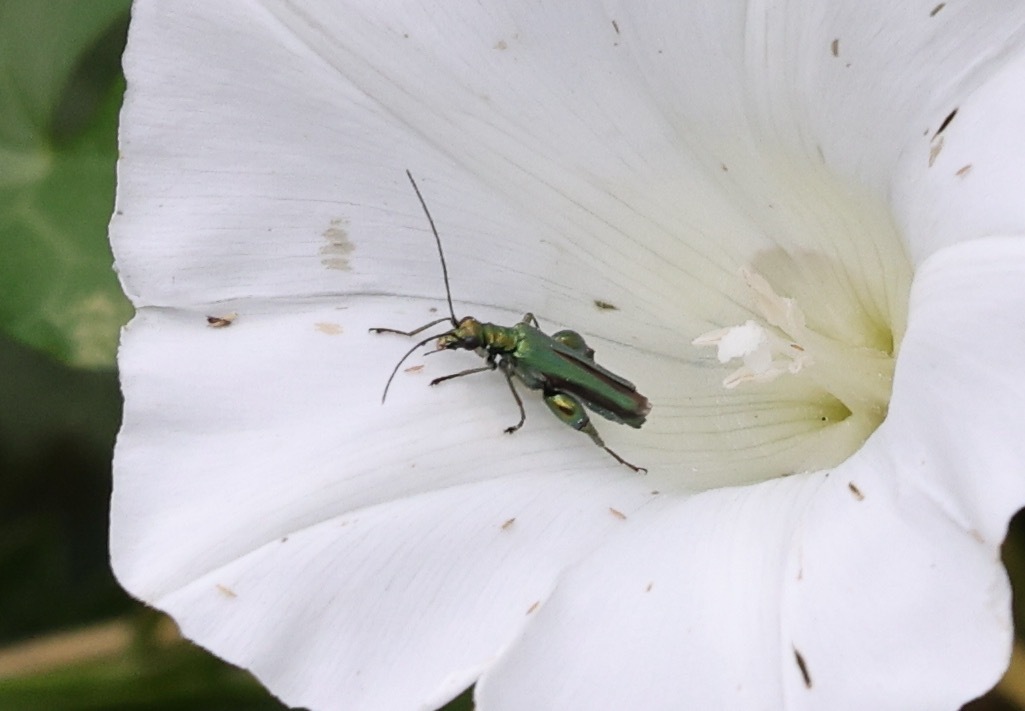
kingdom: Animalia
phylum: Arthropoda
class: Insecta
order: Coleoptera
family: Oedemeridae
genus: Oedemera
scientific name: Oedemera nobilis
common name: Swollen-thighed beetle
